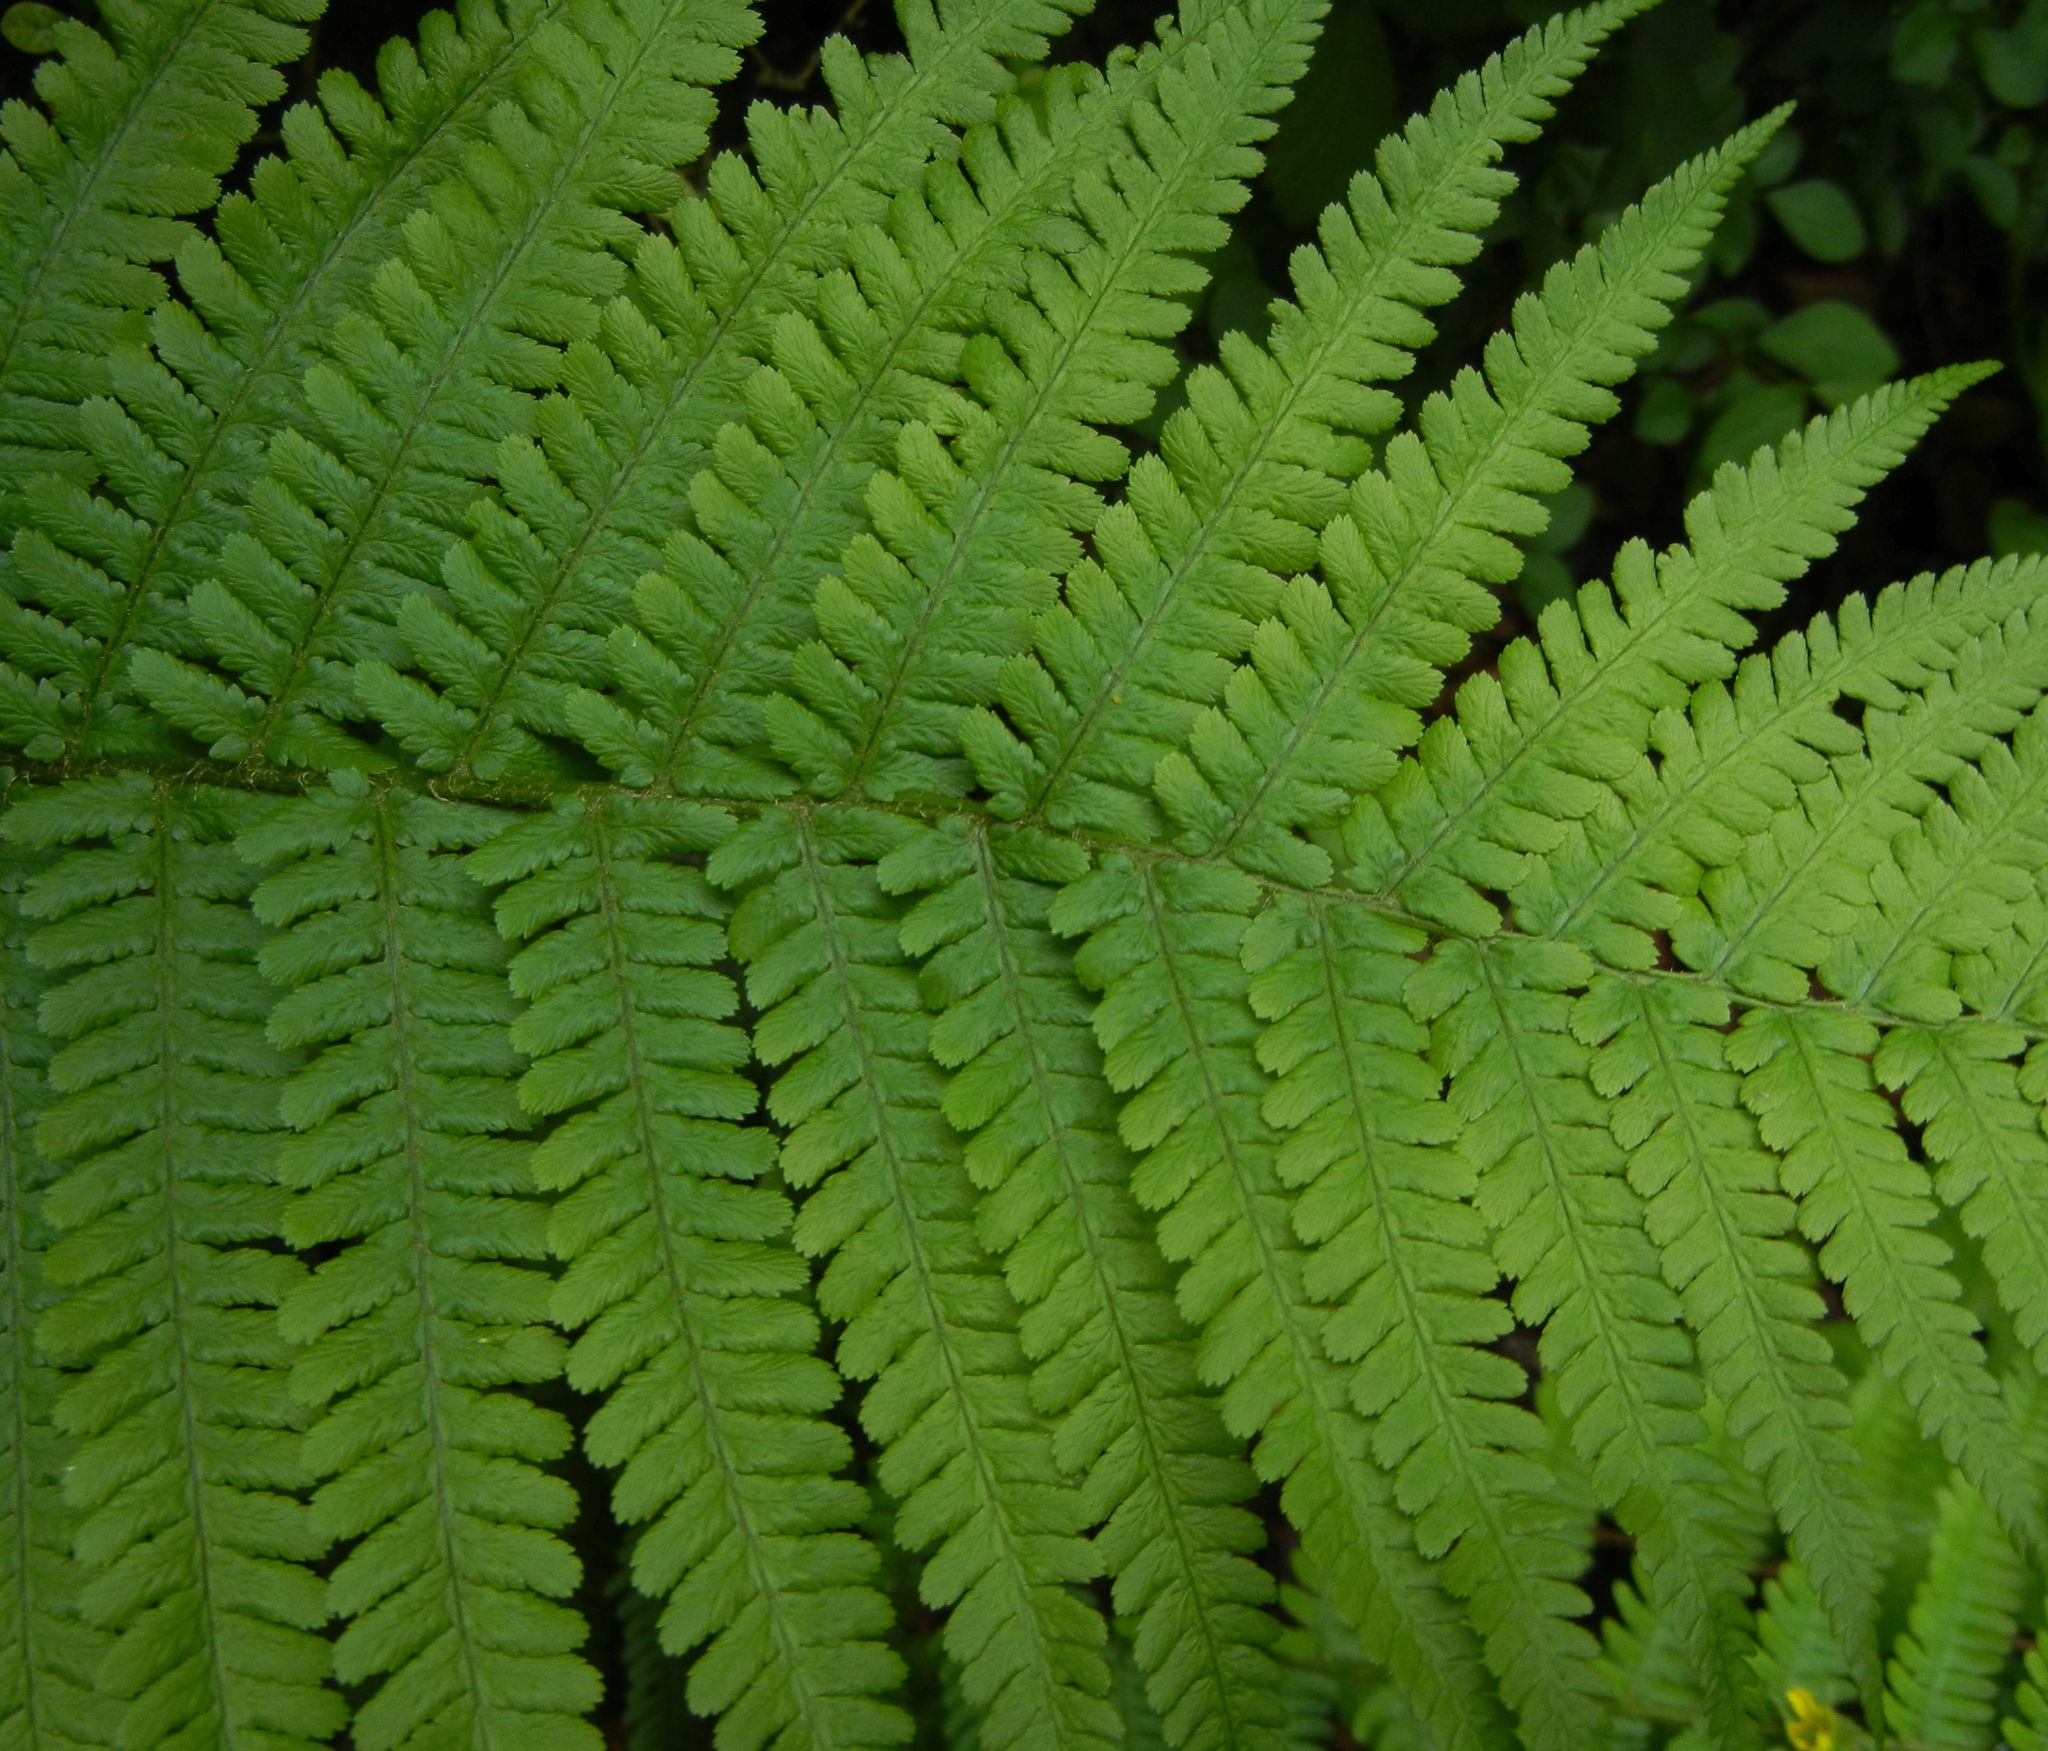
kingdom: Plantae
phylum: Tracheophyta
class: Polypodiopsida
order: Polypodiales
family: Dryopteridaceae
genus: Dryopteris
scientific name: Dryopteris filix-mas
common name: Male fern
